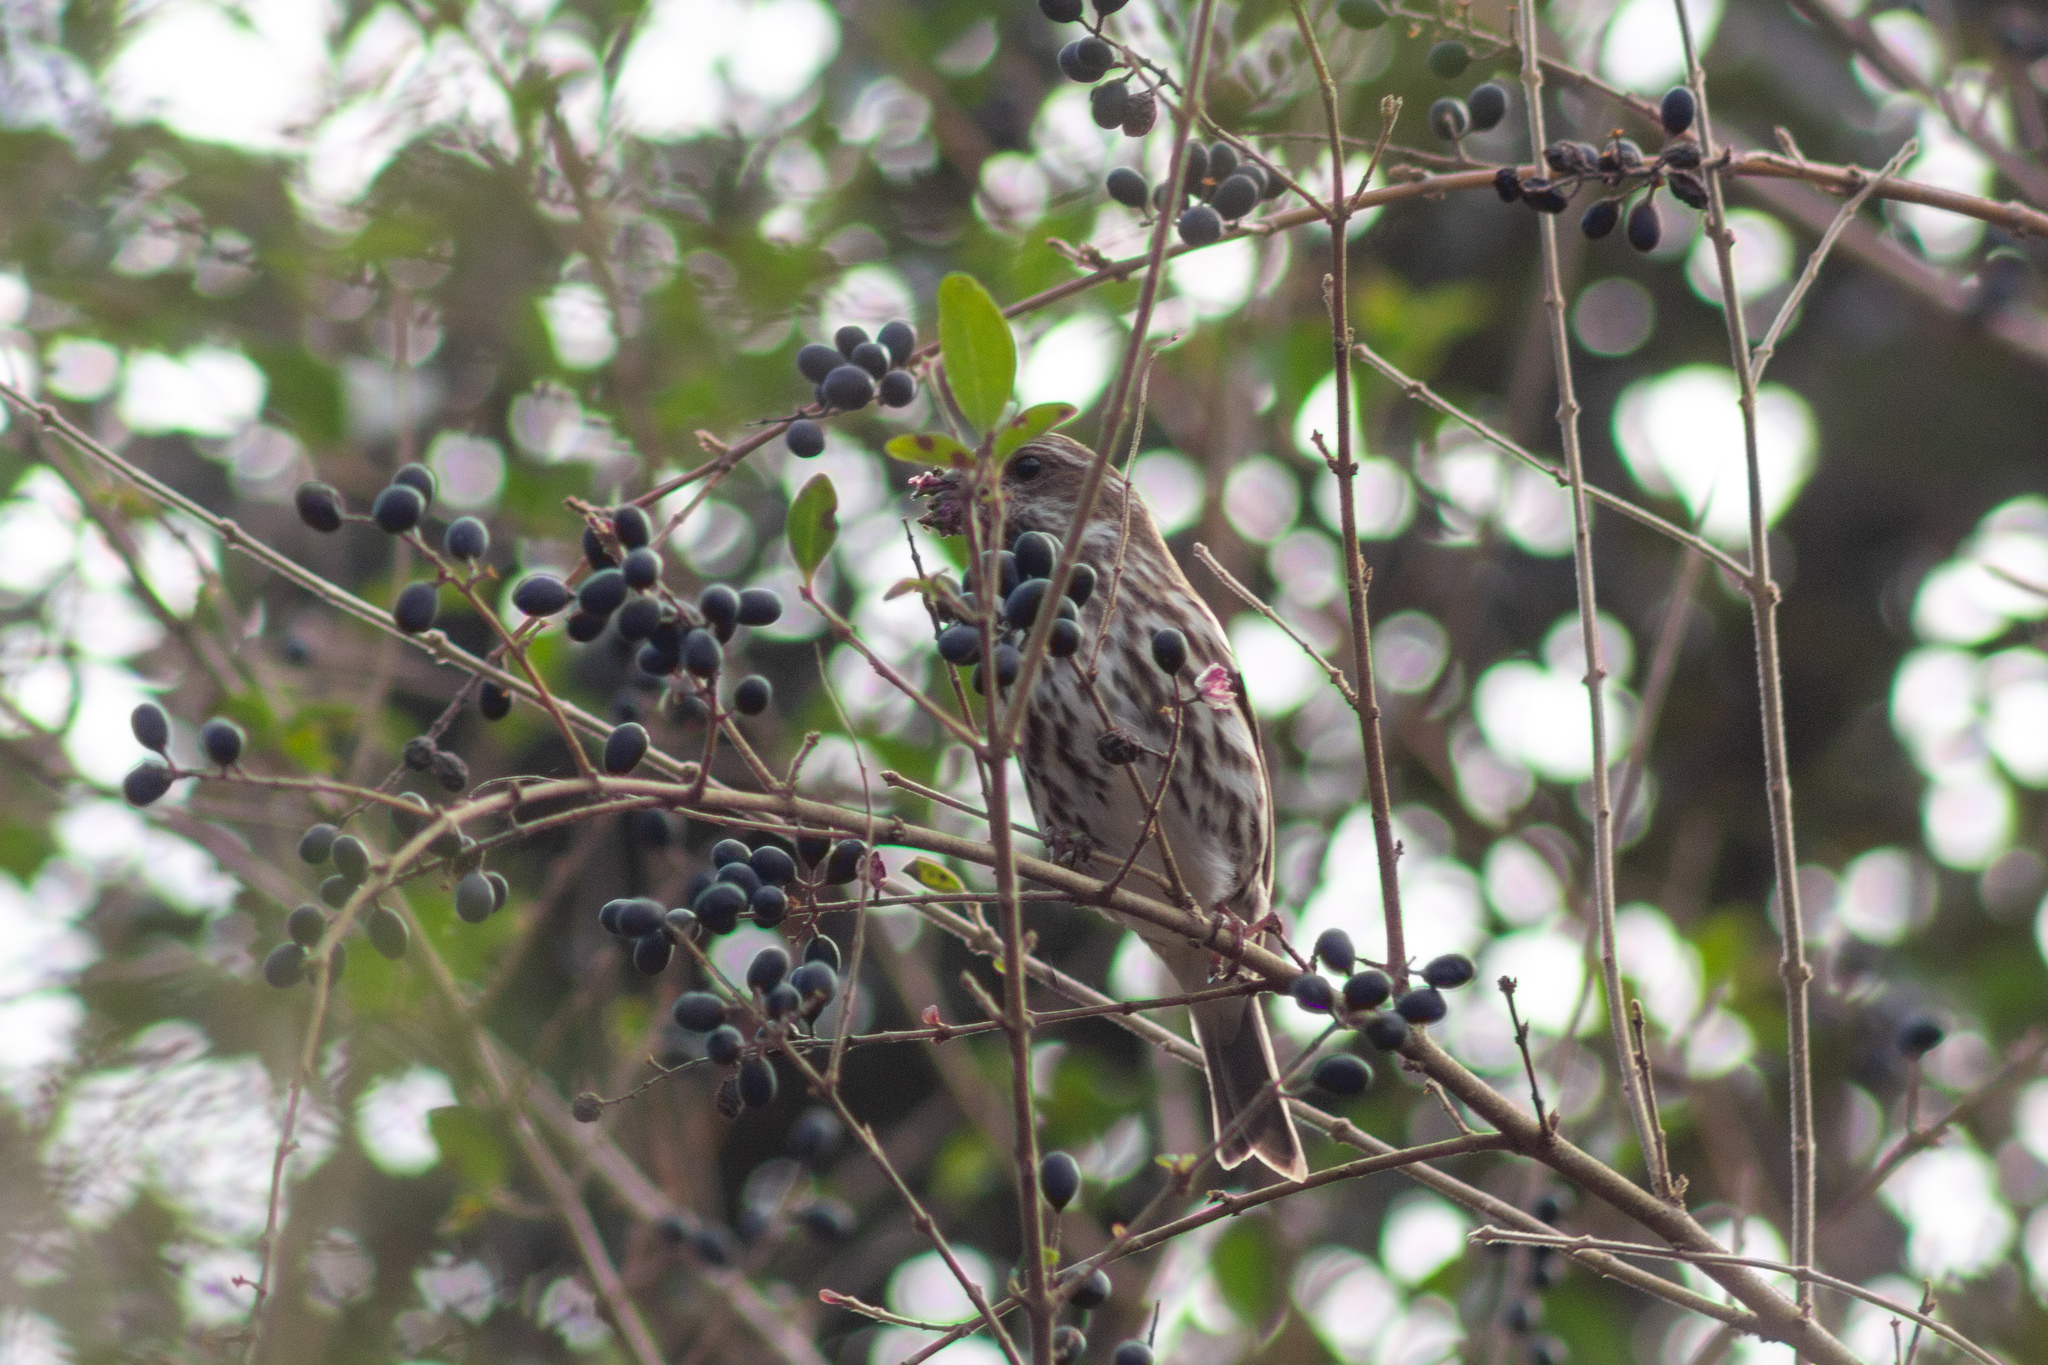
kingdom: Animalia
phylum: Chordata
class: Aves
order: Passeriformes
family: Fringillidae
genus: Haemorhous
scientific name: Haemorhous purpureus
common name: Purple finch
